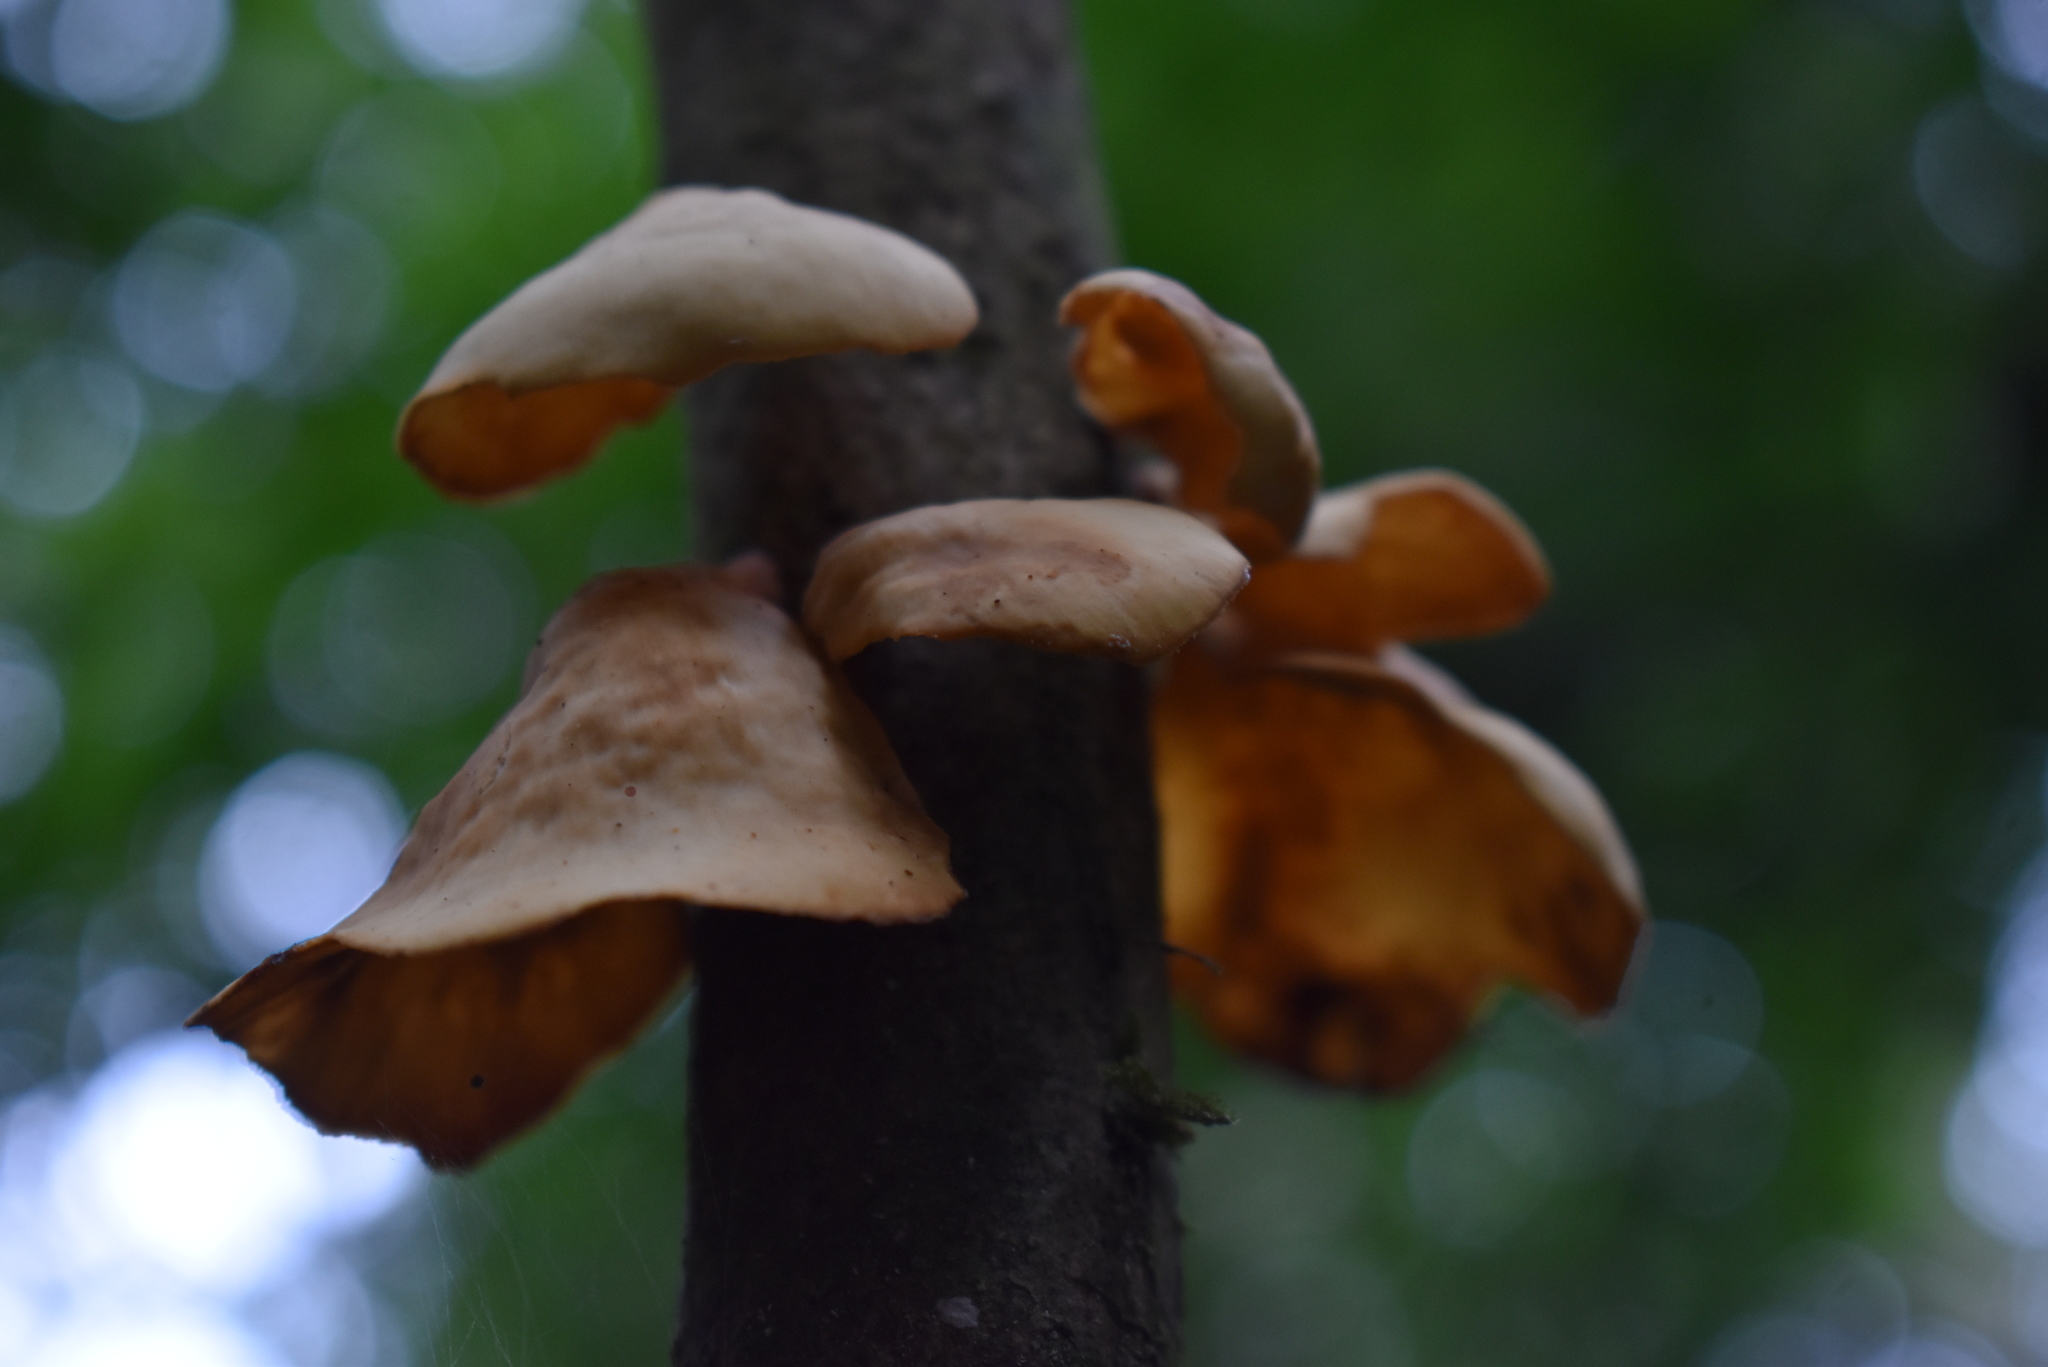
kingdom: Fungi
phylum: Basidiomycota
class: Agaricomycetes
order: Polyporales
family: Polyporaceae
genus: Cerioporus
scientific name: Cerioporus flavus
